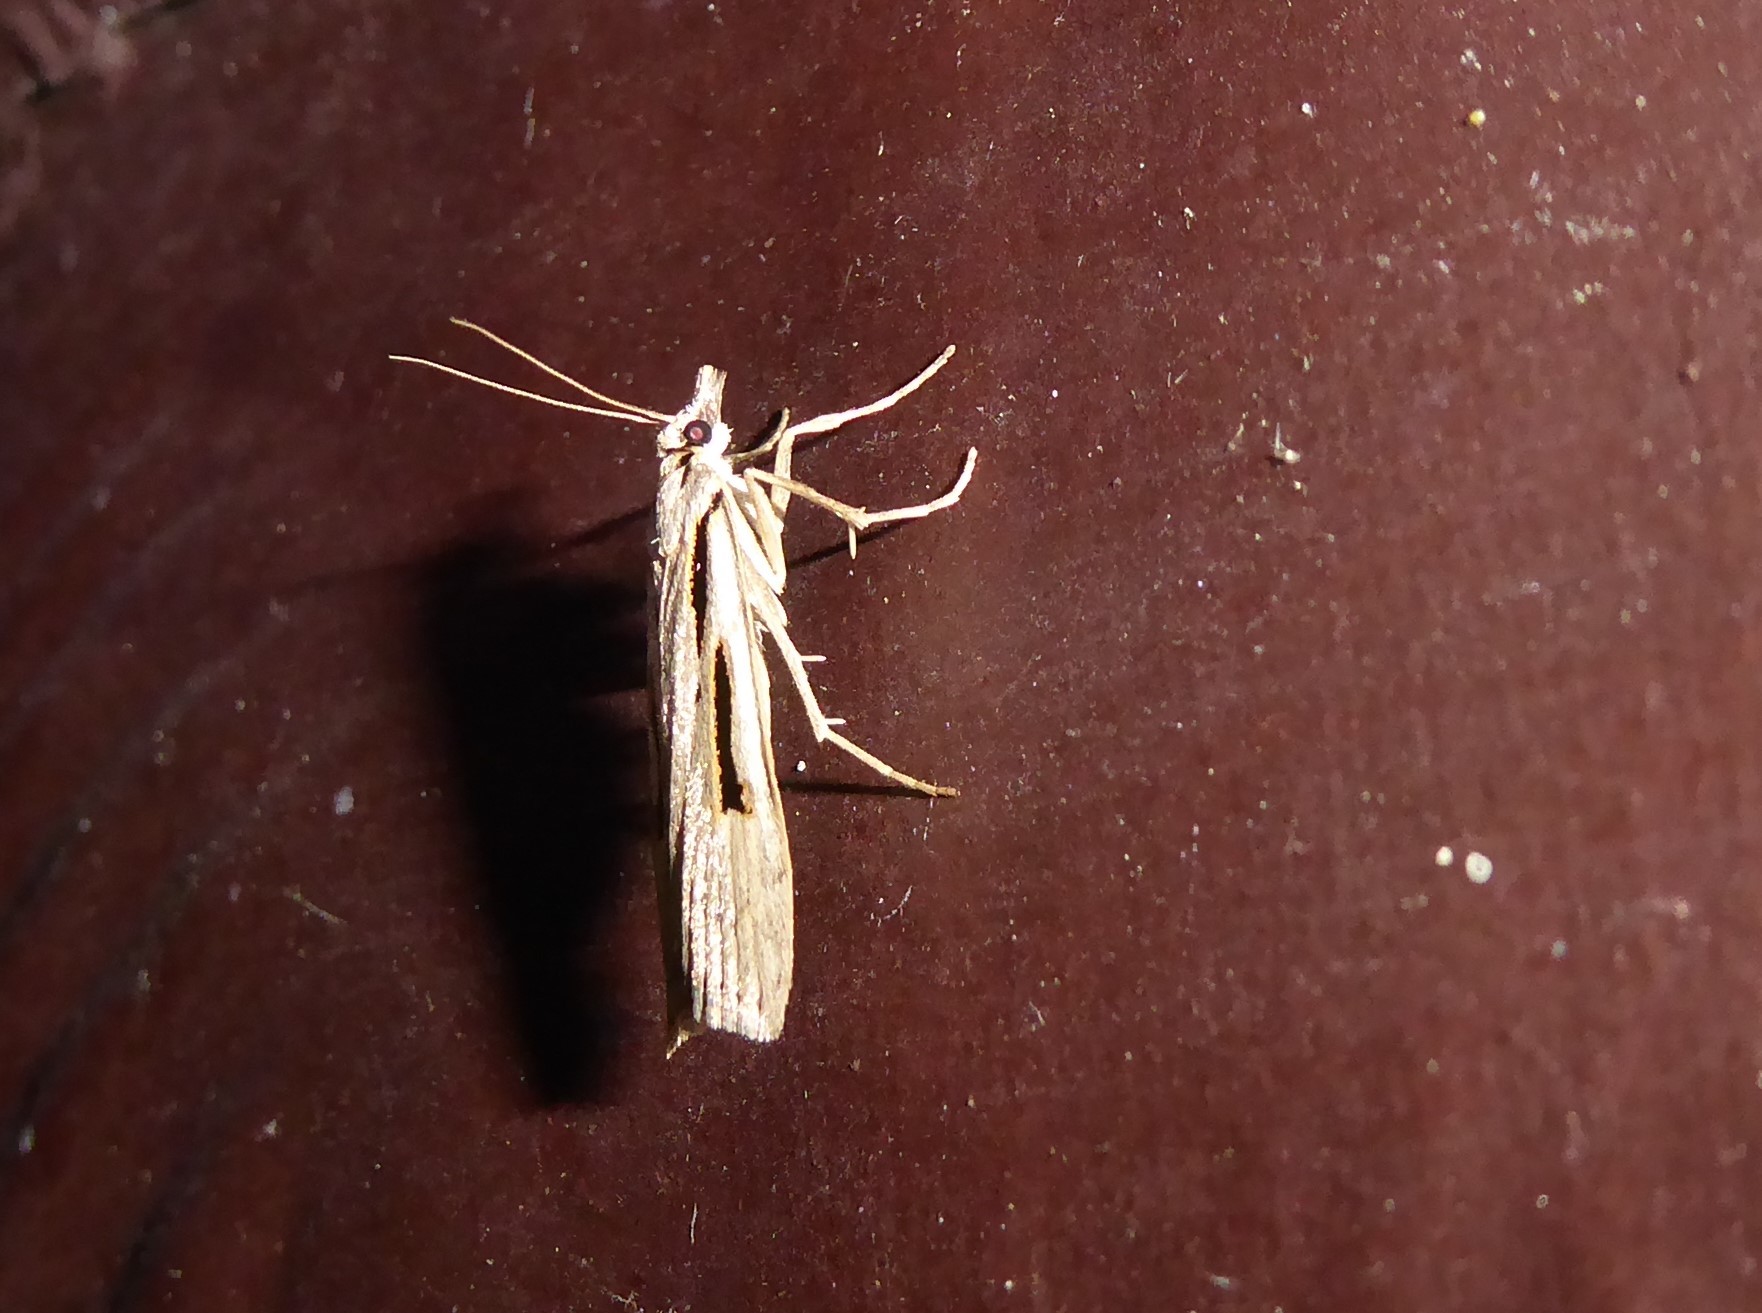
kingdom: Animalia
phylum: Arthropoda
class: Insecta
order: Lepidoptera
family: Crambidae
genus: Scoparia
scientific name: Scoparia rotuellus
